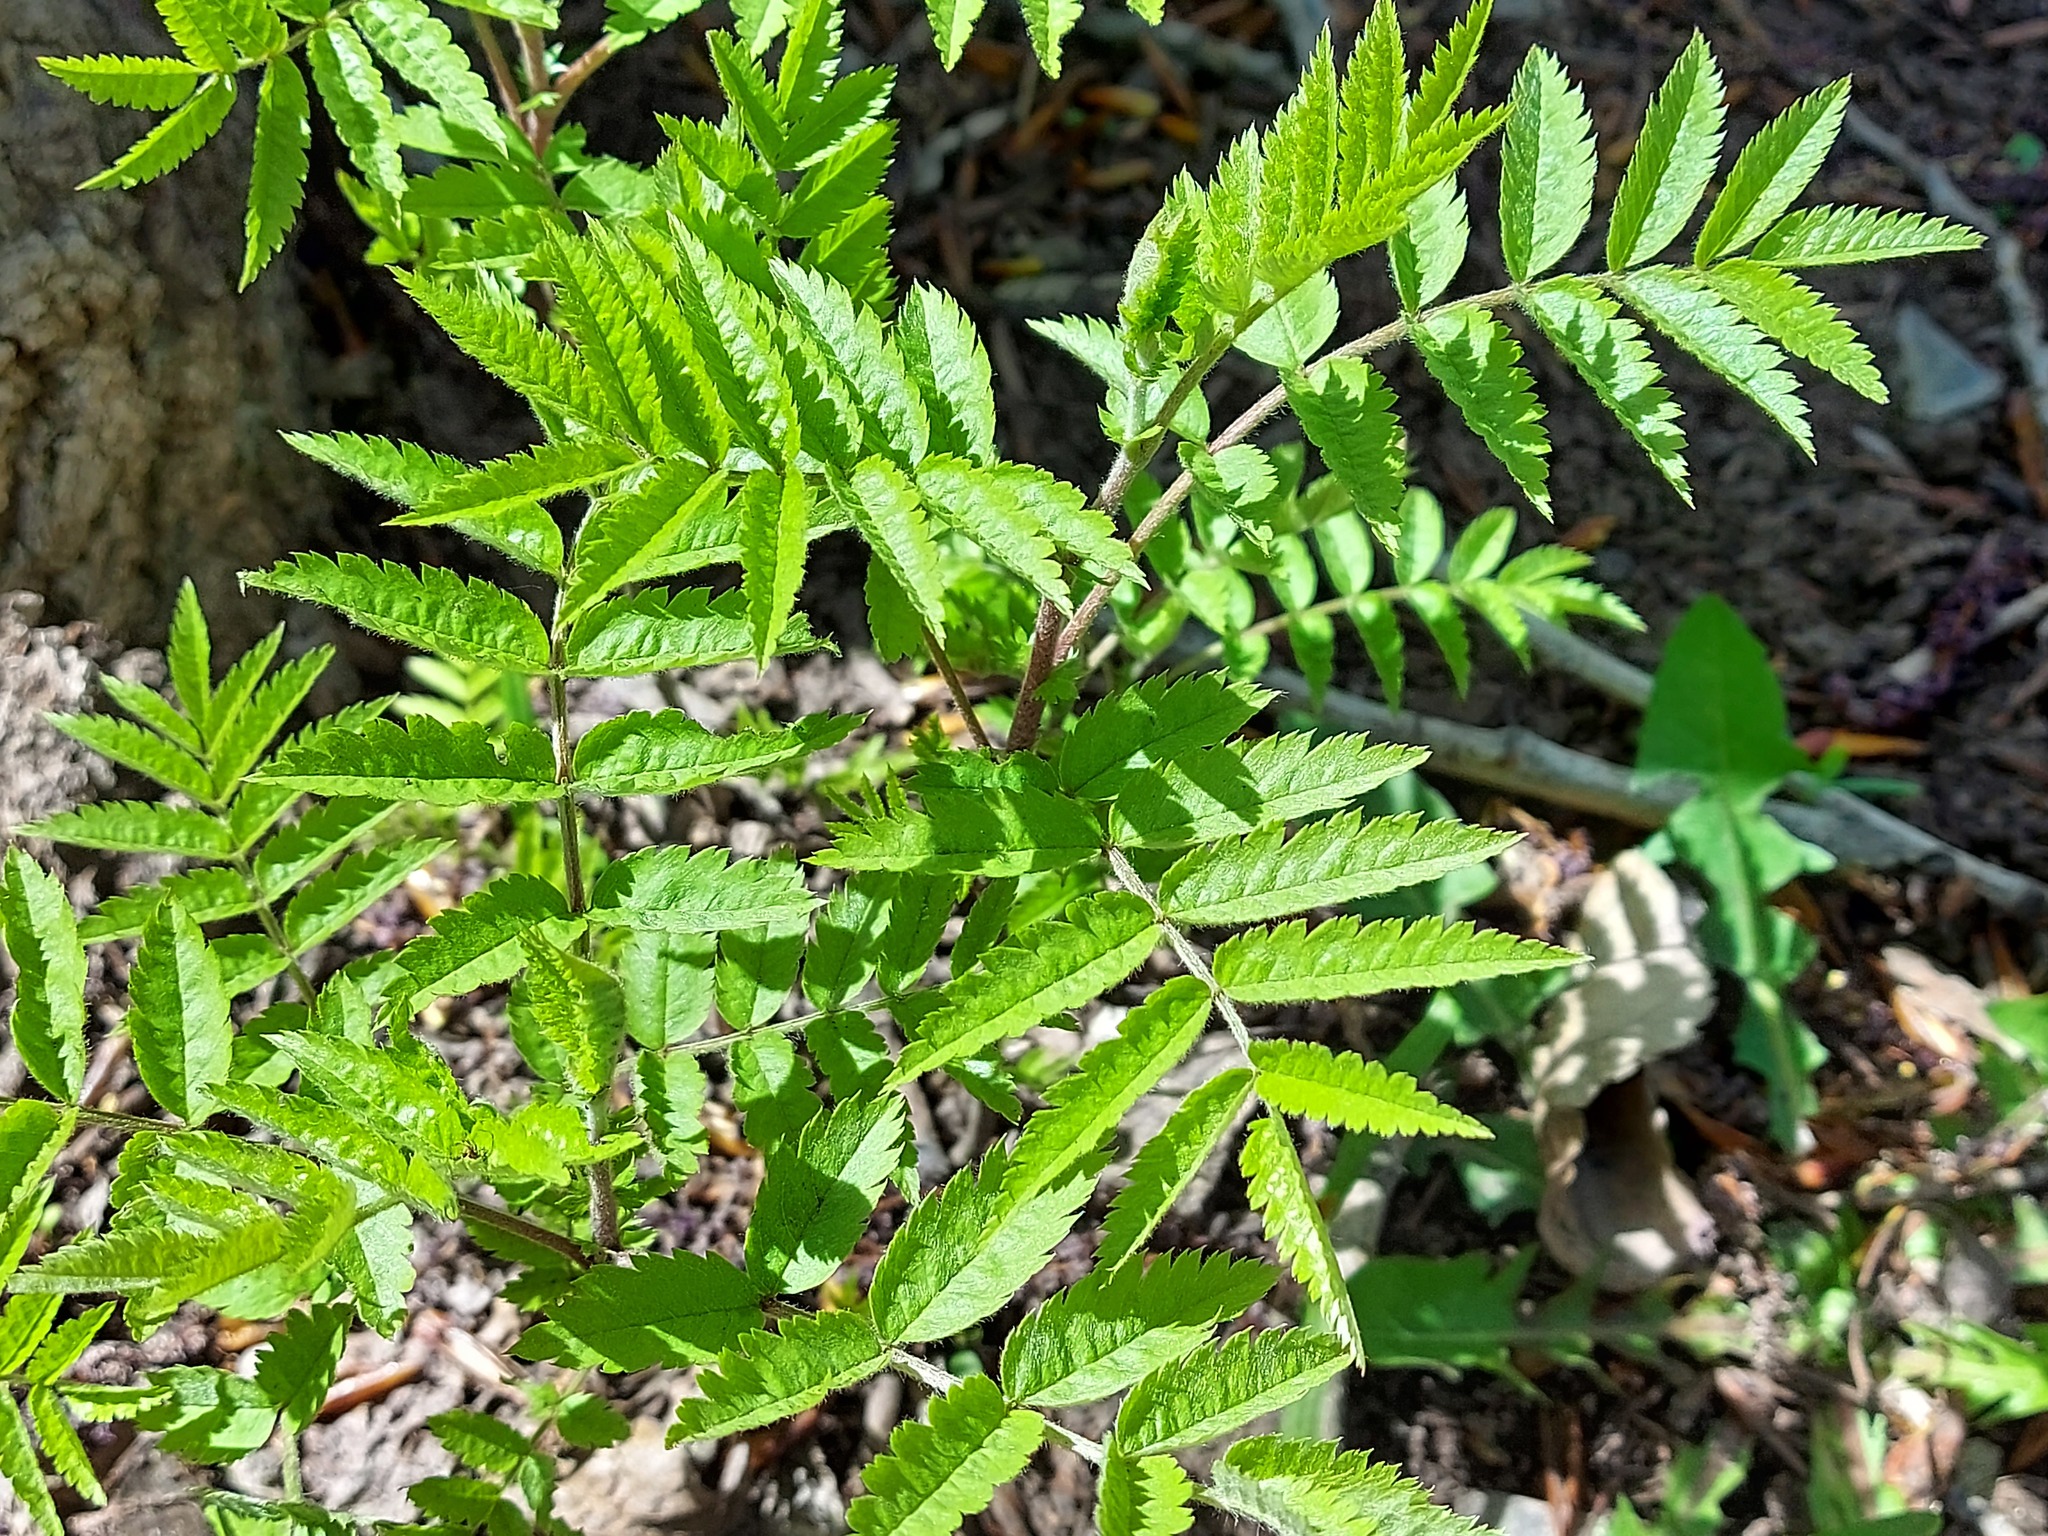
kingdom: Plantae
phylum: Tracheophyta
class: Magnoliopsida
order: Rosales
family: Rosaceae
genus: Sorbus
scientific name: Sorbus aucuparia
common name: Rowan
